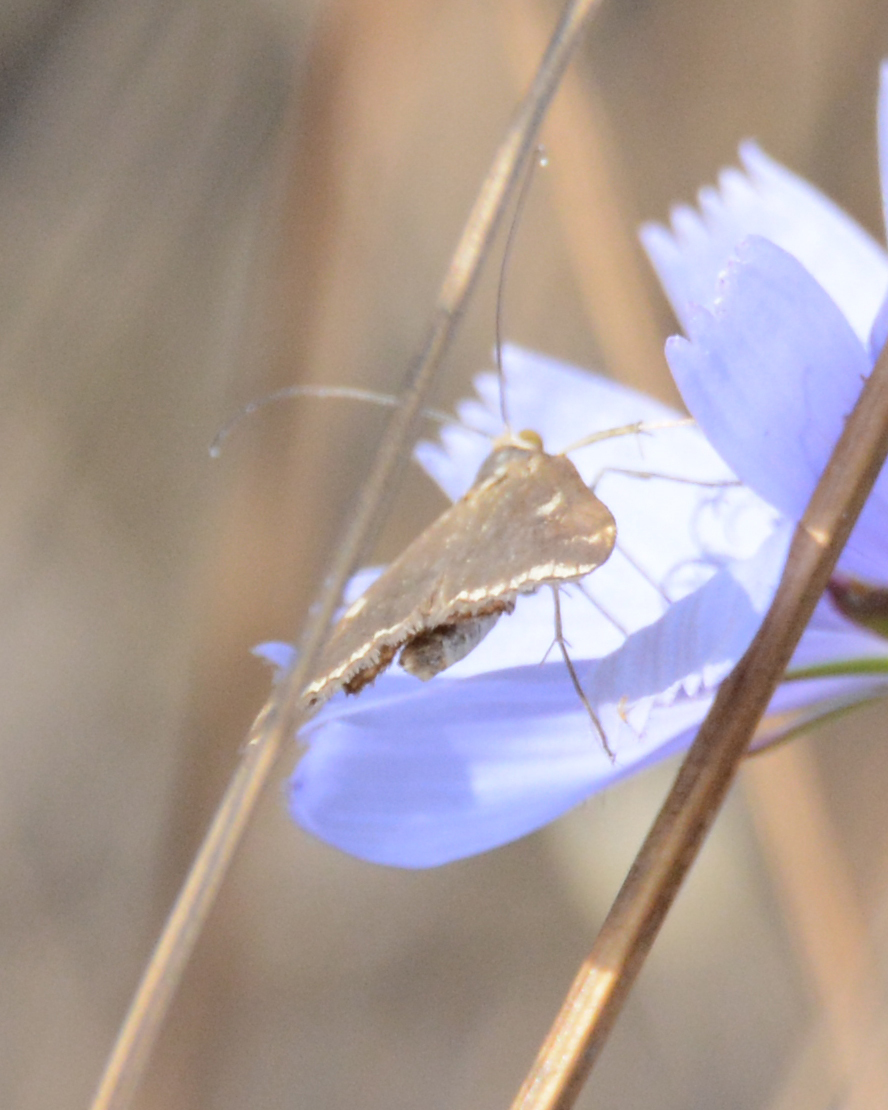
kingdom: Animalia
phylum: Arthropoda
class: Insecta
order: Lepidoptera
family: Crambidae
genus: Loxostege
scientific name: Loxostege sticticalis
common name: Crambid moth
